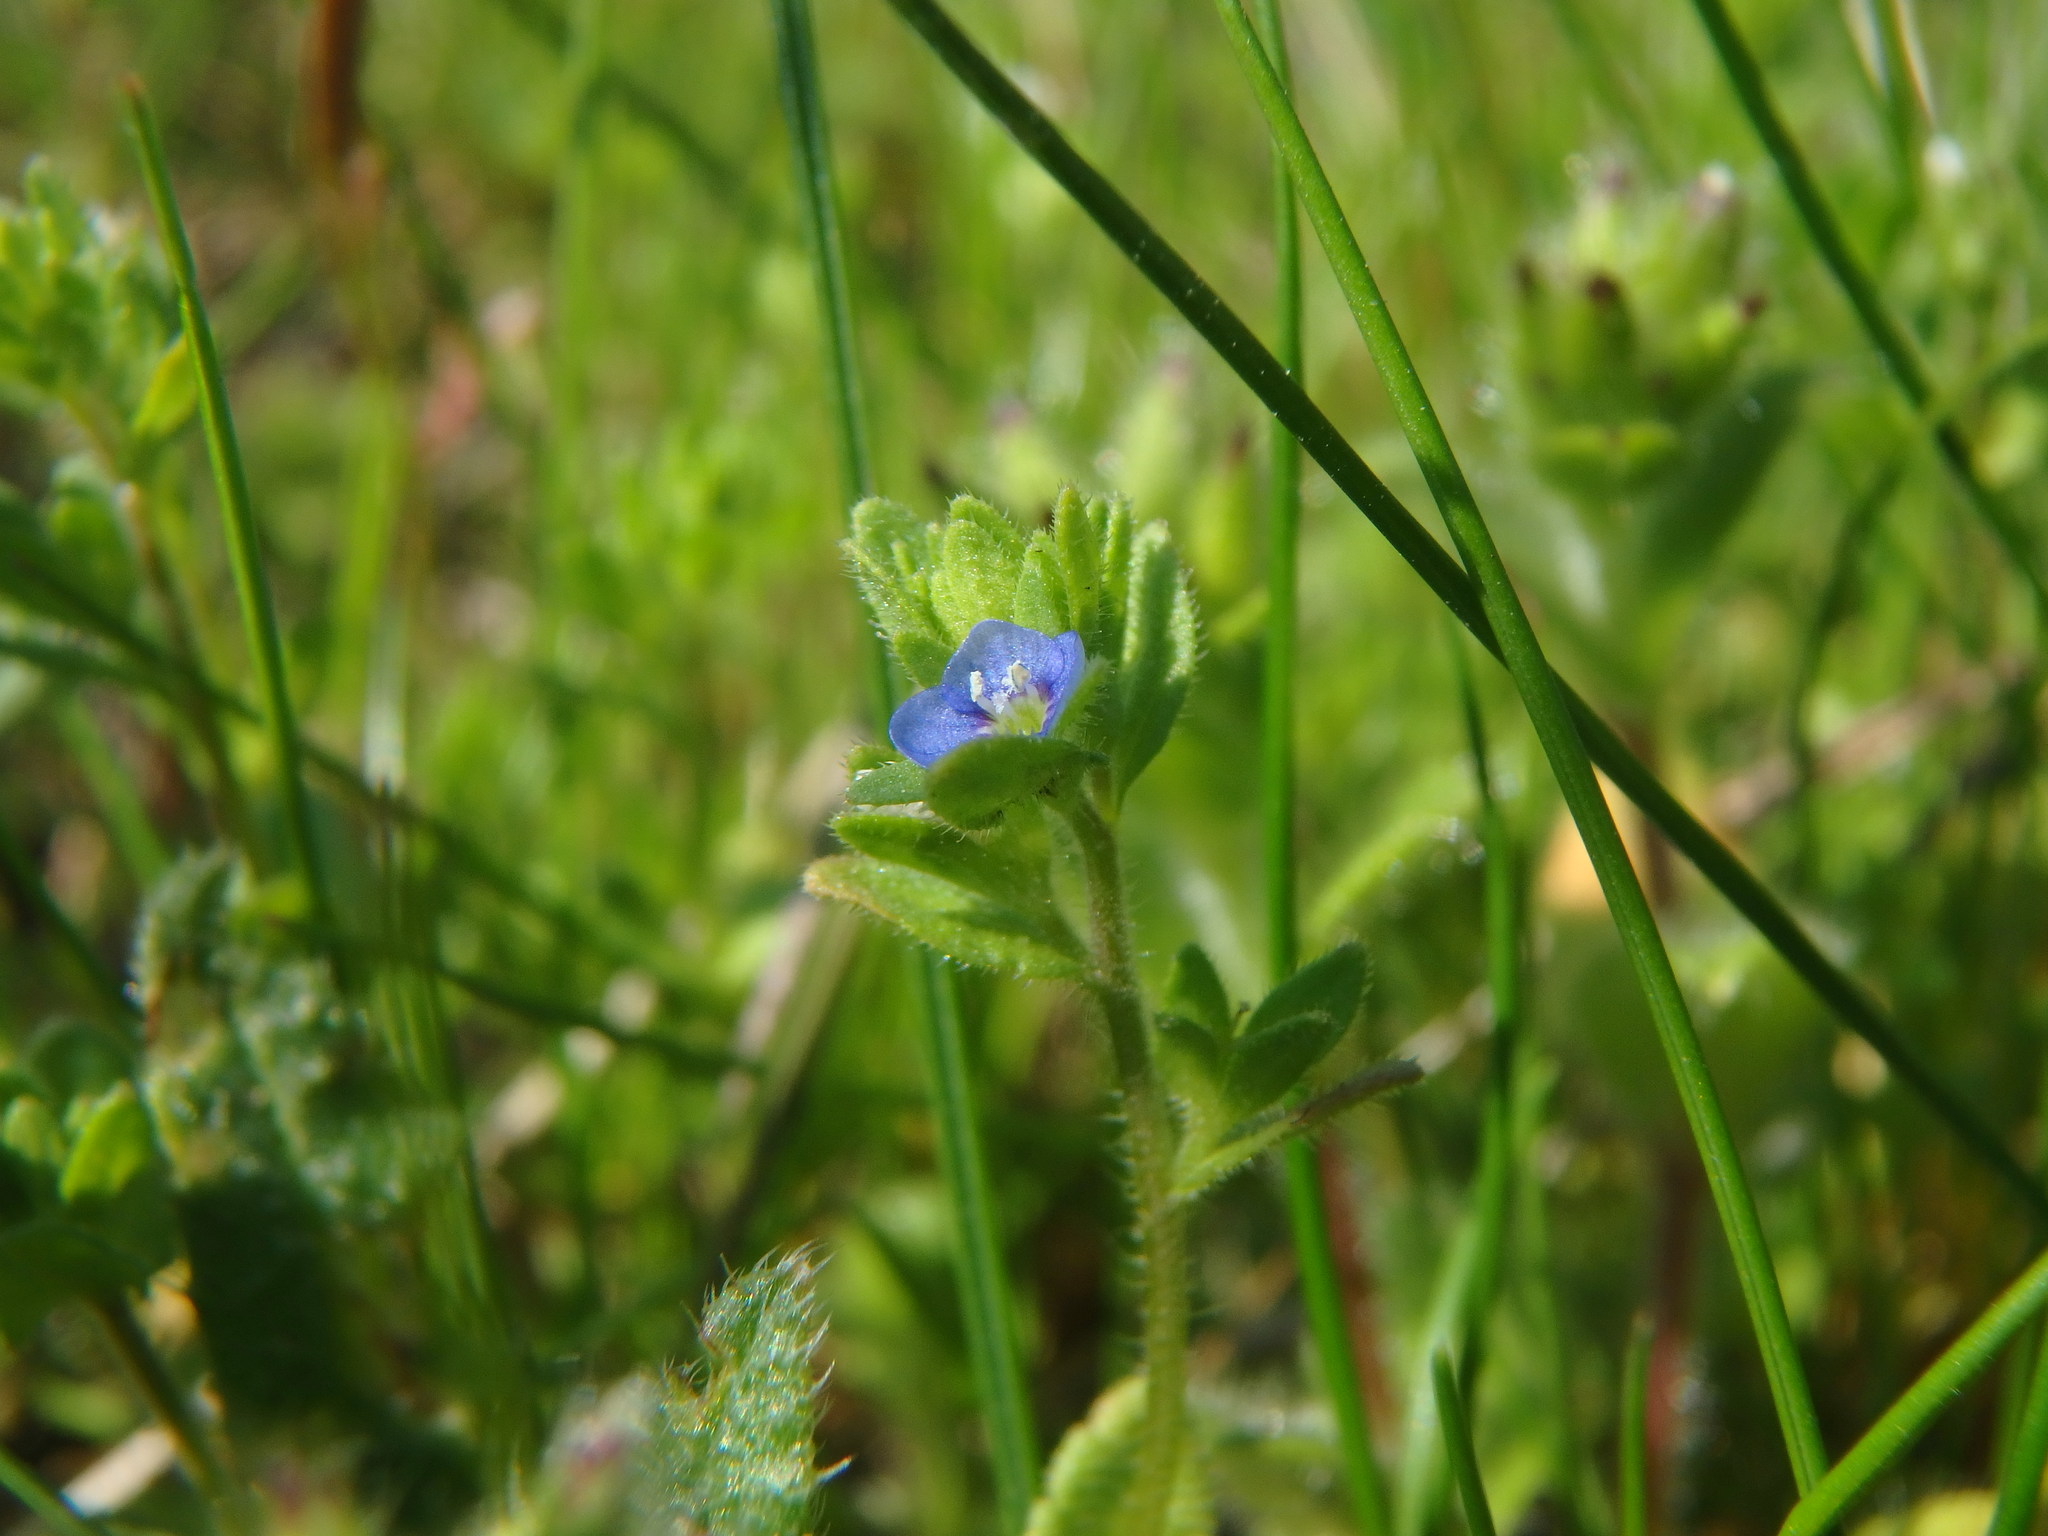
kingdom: Plantae
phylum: Tracheophyta
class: Magnoliopsida
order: Lamiales
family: Plantaginaceae
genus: Veronica
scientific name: Veronica arvensis
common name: Corn speedwell
